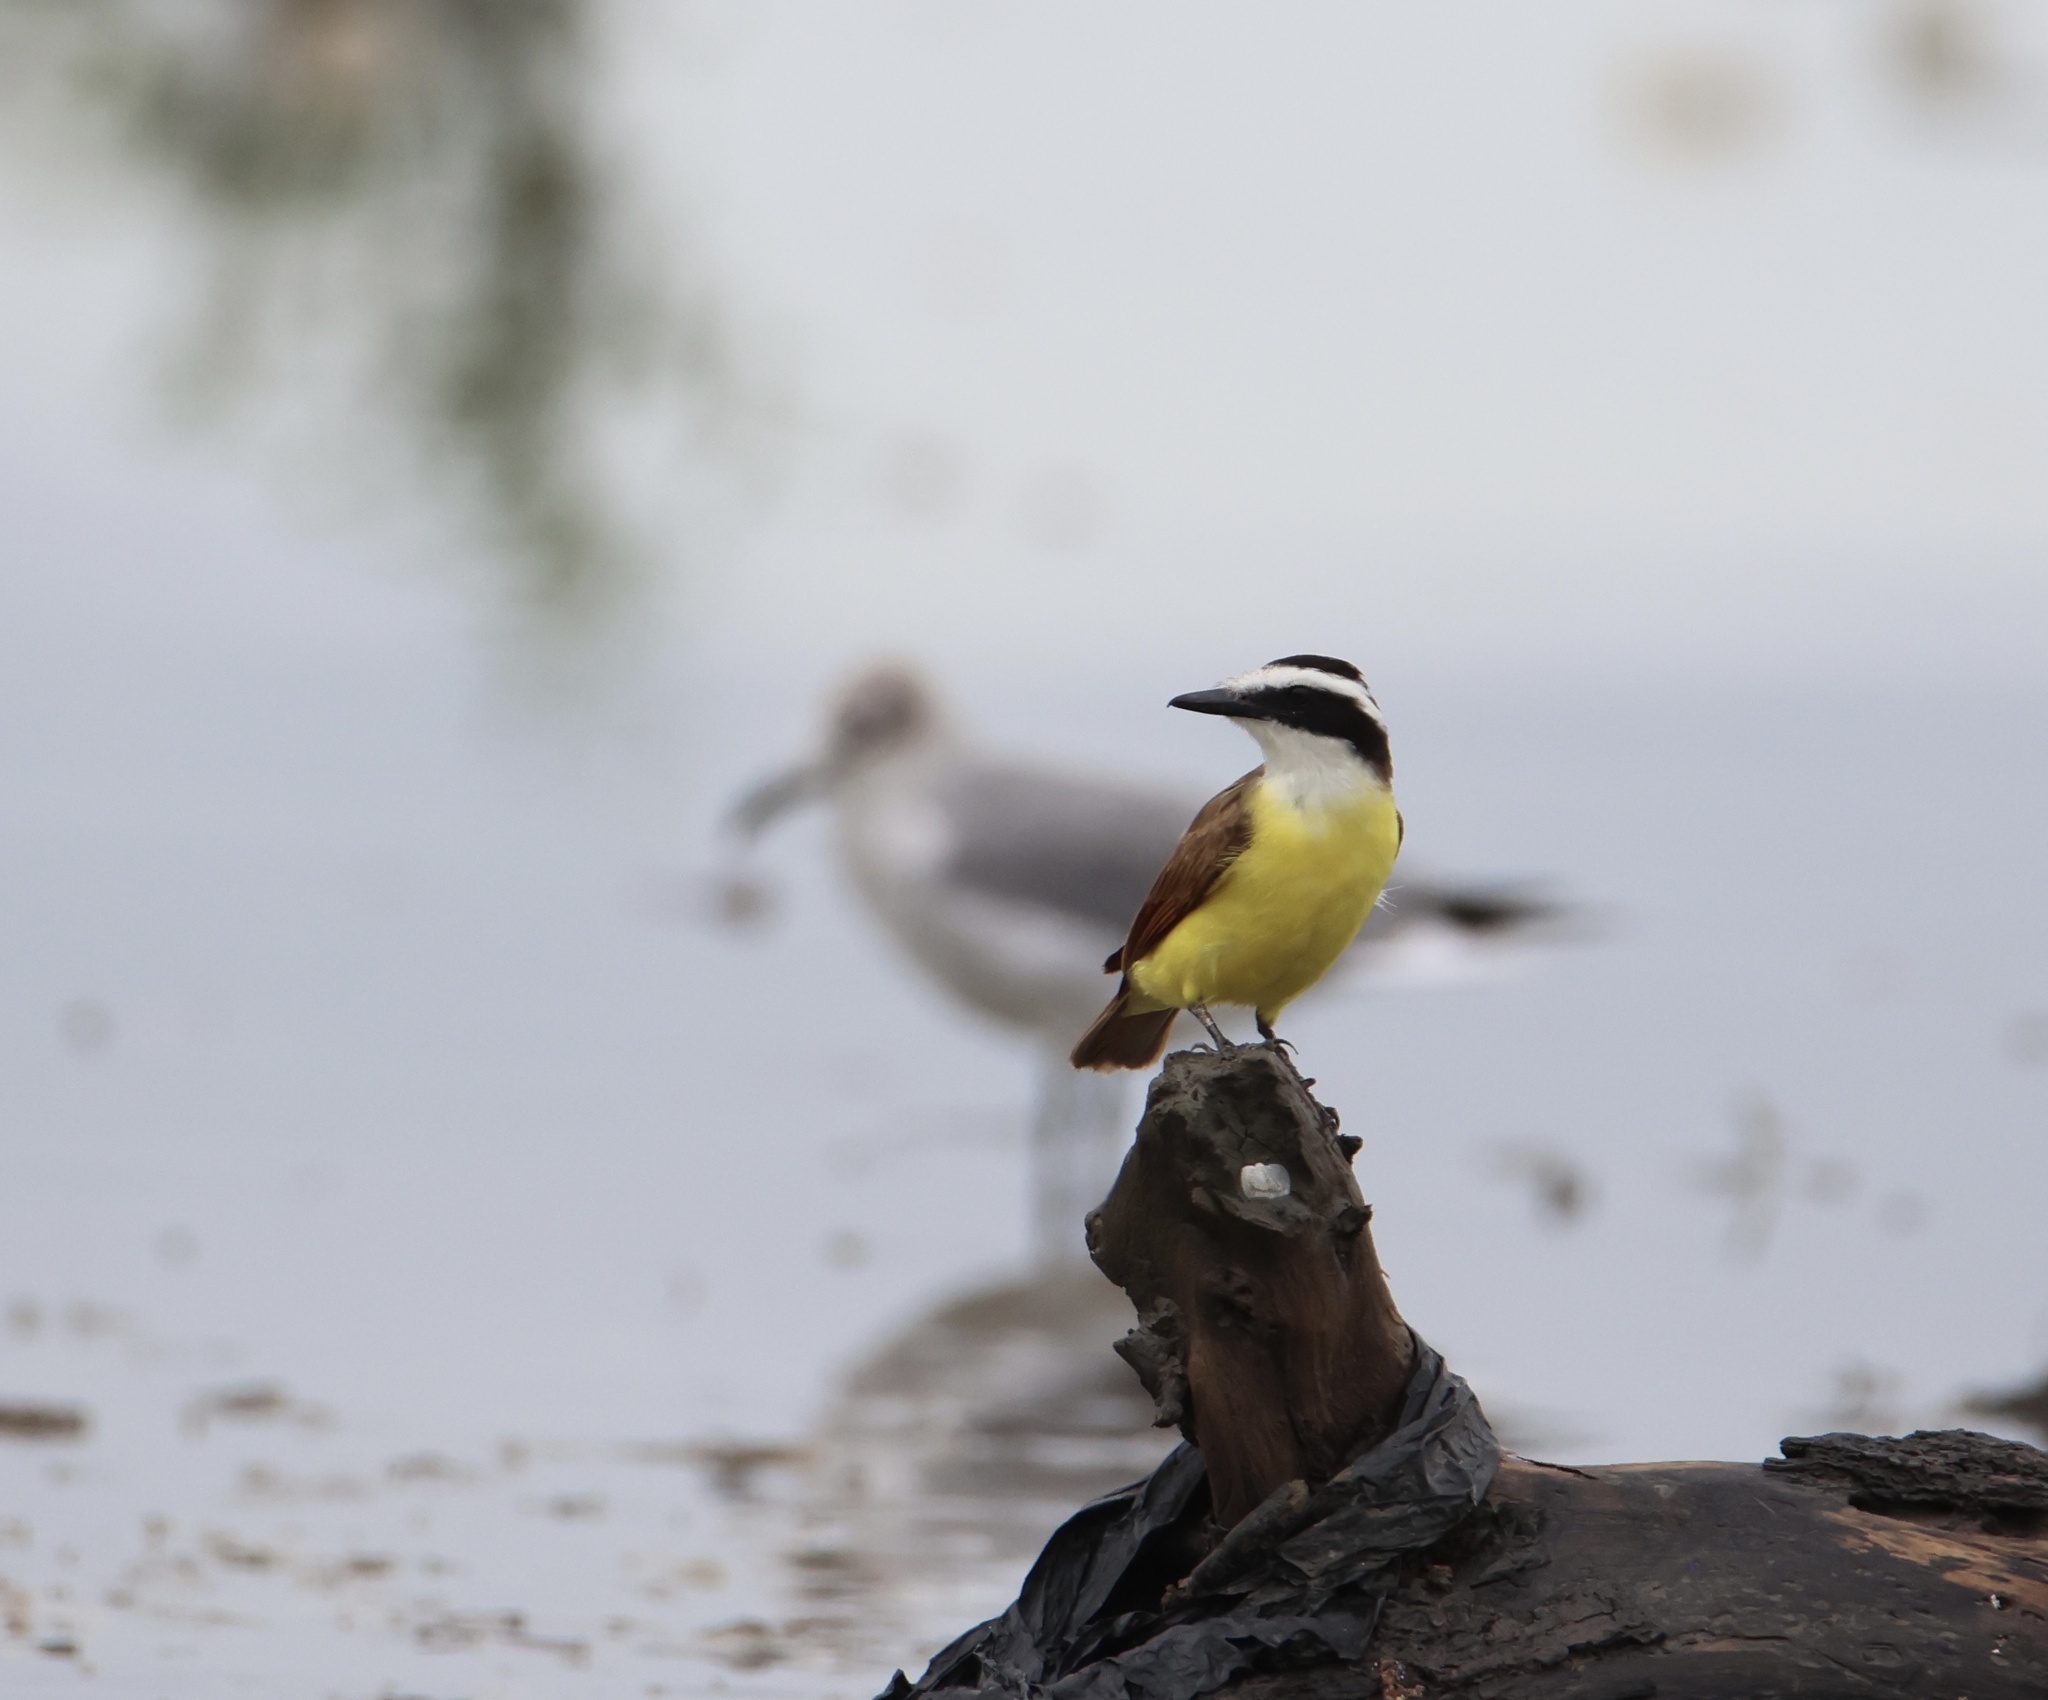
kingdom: Animalia
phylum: Chordata
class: Aves
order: Passeriformes
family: Tyrannidae
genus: Pitangus
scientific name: Pitangus sulphuratus
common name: Great kiskadee
